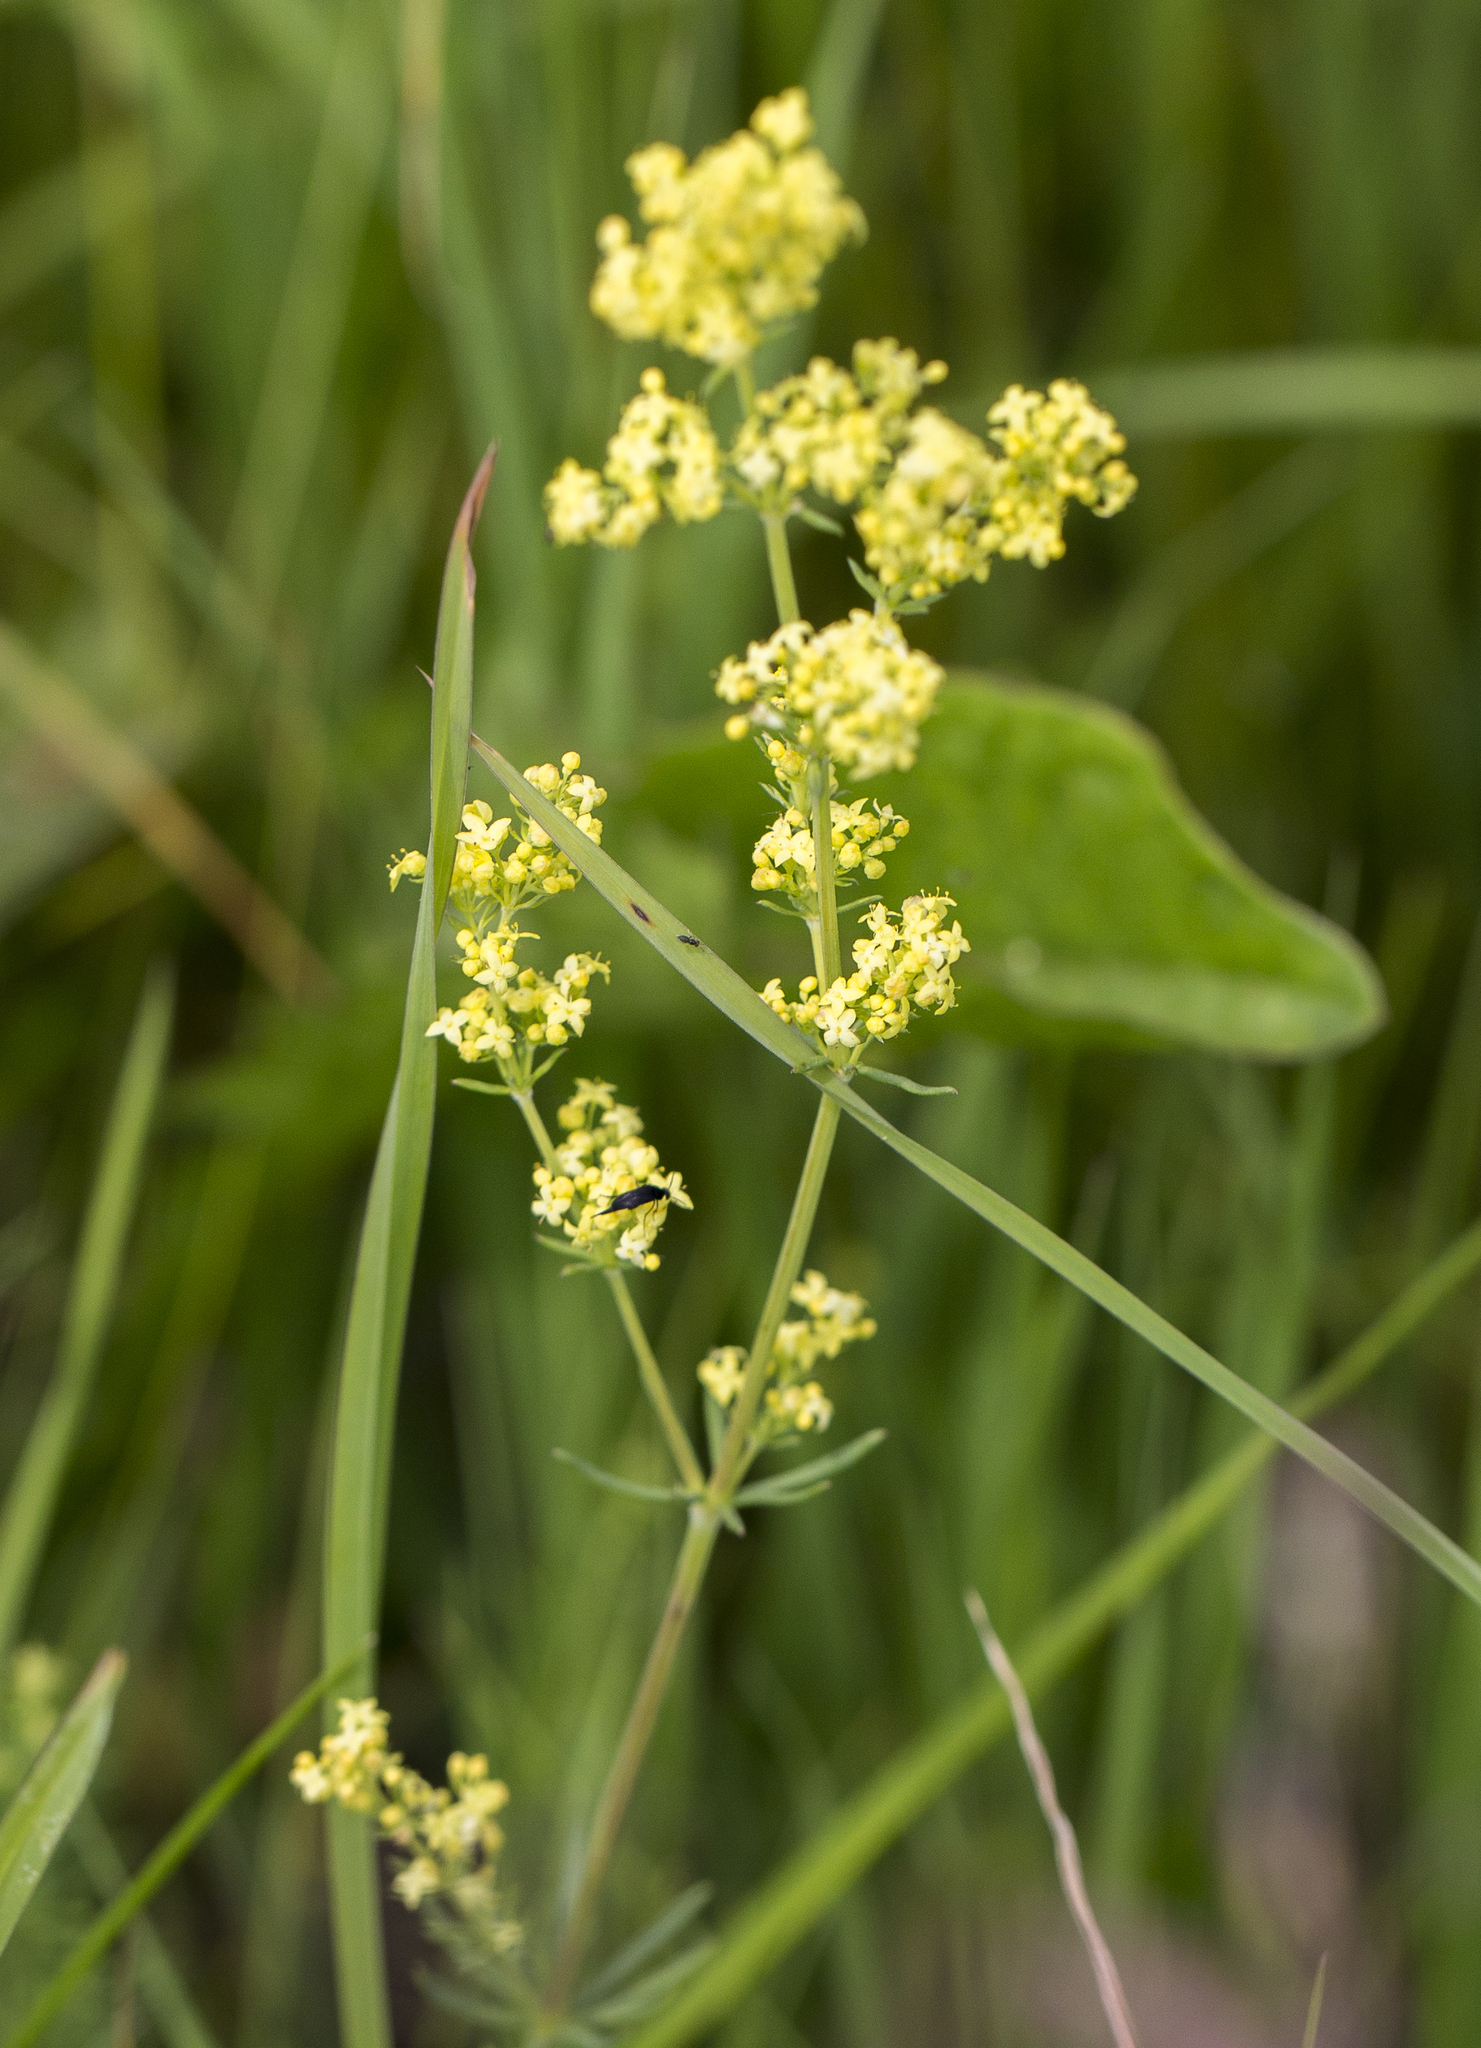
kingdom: Plantae
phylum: Tracheophyta
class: Magnoliopsida
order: Gentianales
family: Rubiaceae
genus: Galium
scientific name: Galium pomeranicum
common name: Bedstraw
